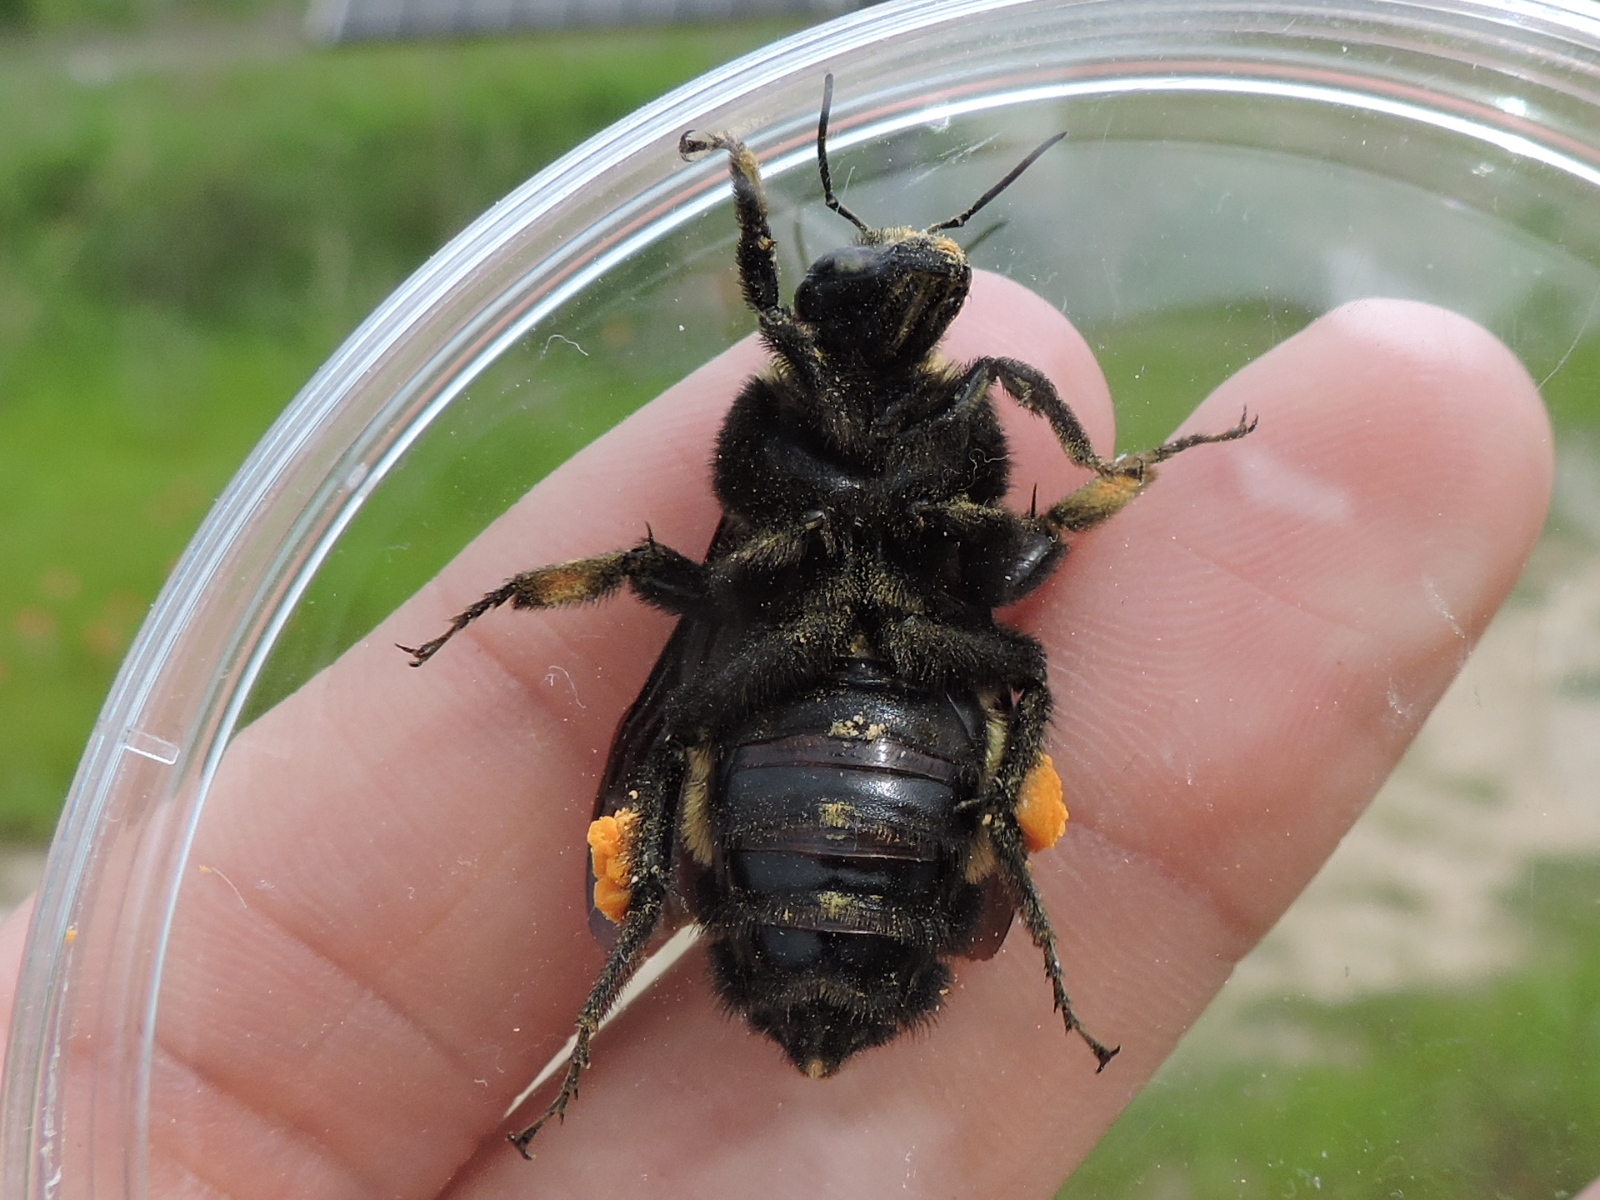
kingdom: Animalia
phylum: Arthropoda
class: Insecta
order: Hymenoptera
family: Apidae
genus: Bombus
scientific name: Bombus pensylvanicus
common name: Bumble bee
